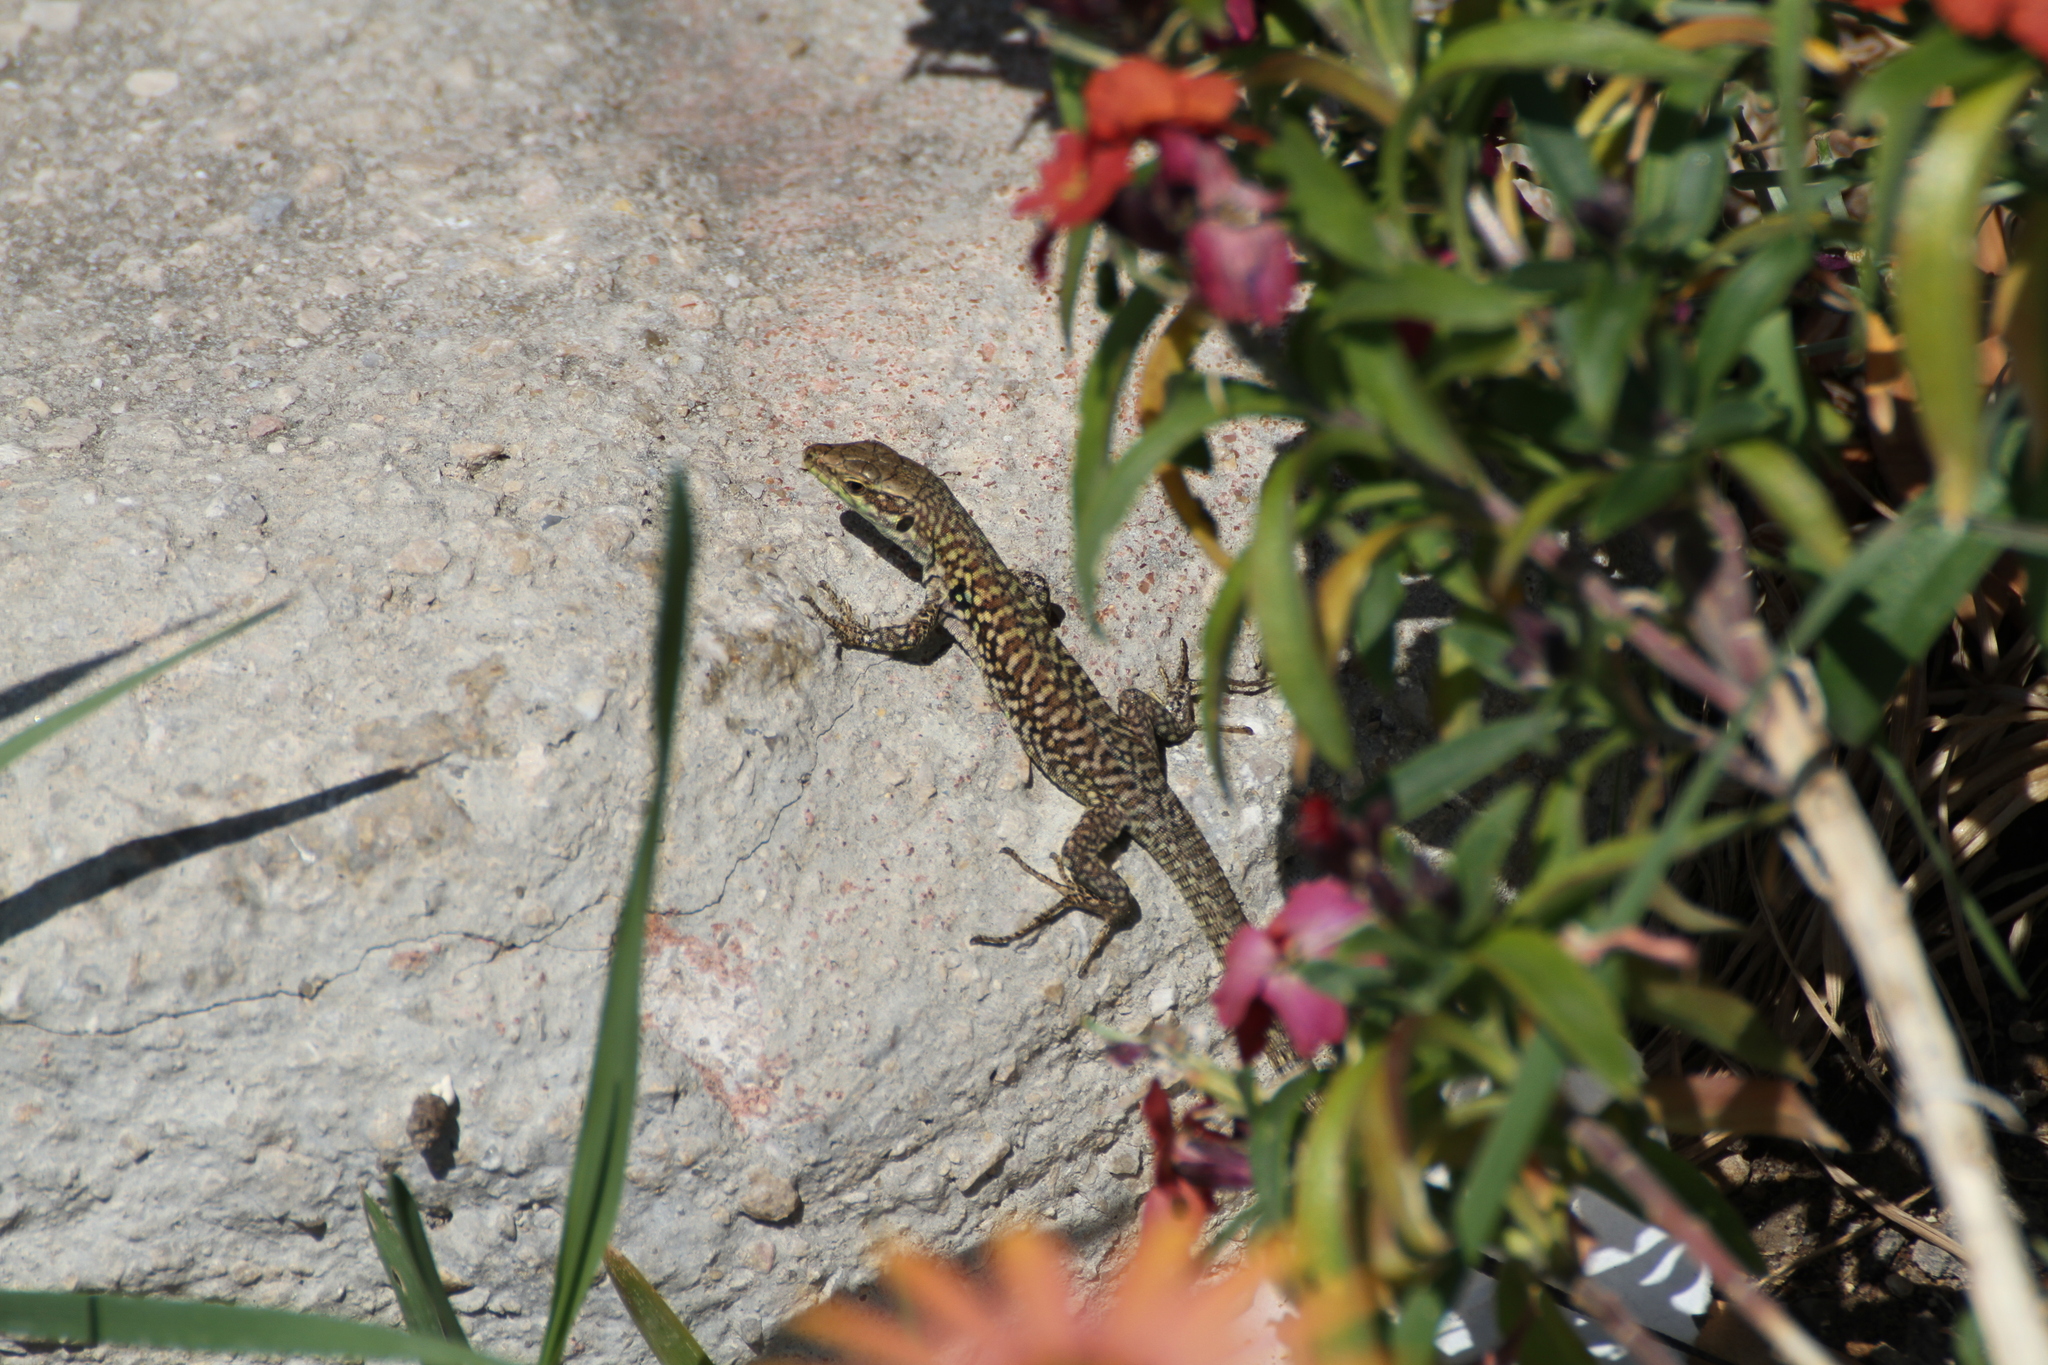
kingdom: Animalia
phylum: Chordata
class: Squamata
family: Lacertidae
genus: Podarcis
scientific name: Podarcis siculus
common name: Italian wall lizard
